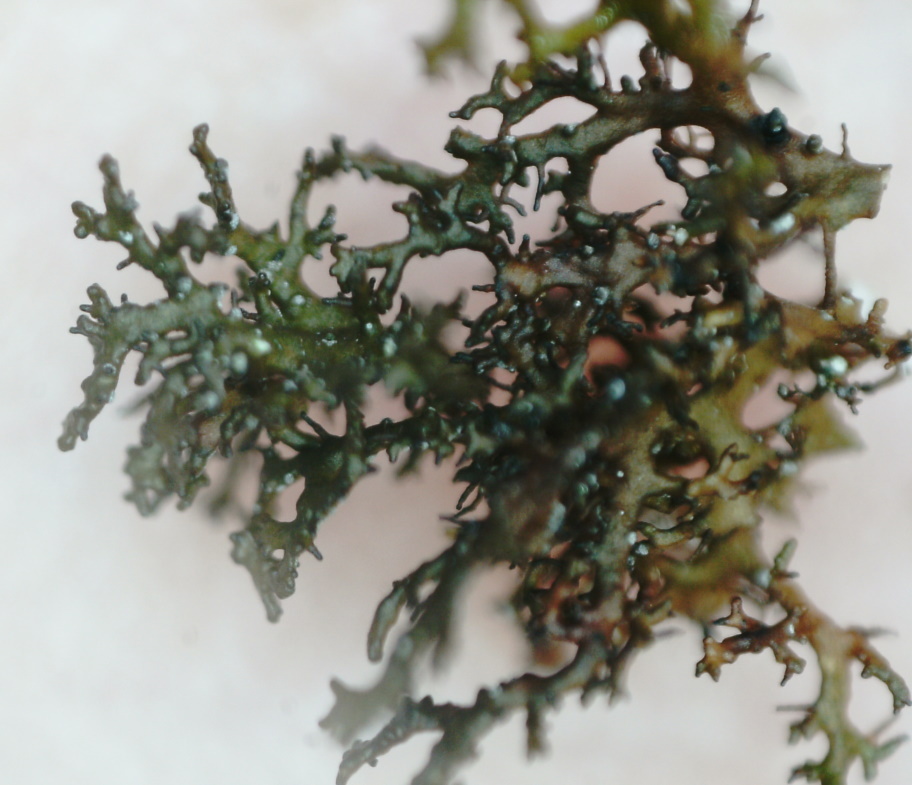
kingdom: Fungi
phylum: Ascomycota
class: Lecanoromycetes
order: Lecanorales
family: Parmeliaceae
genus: Cetraria
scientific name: Cetraria odontella
